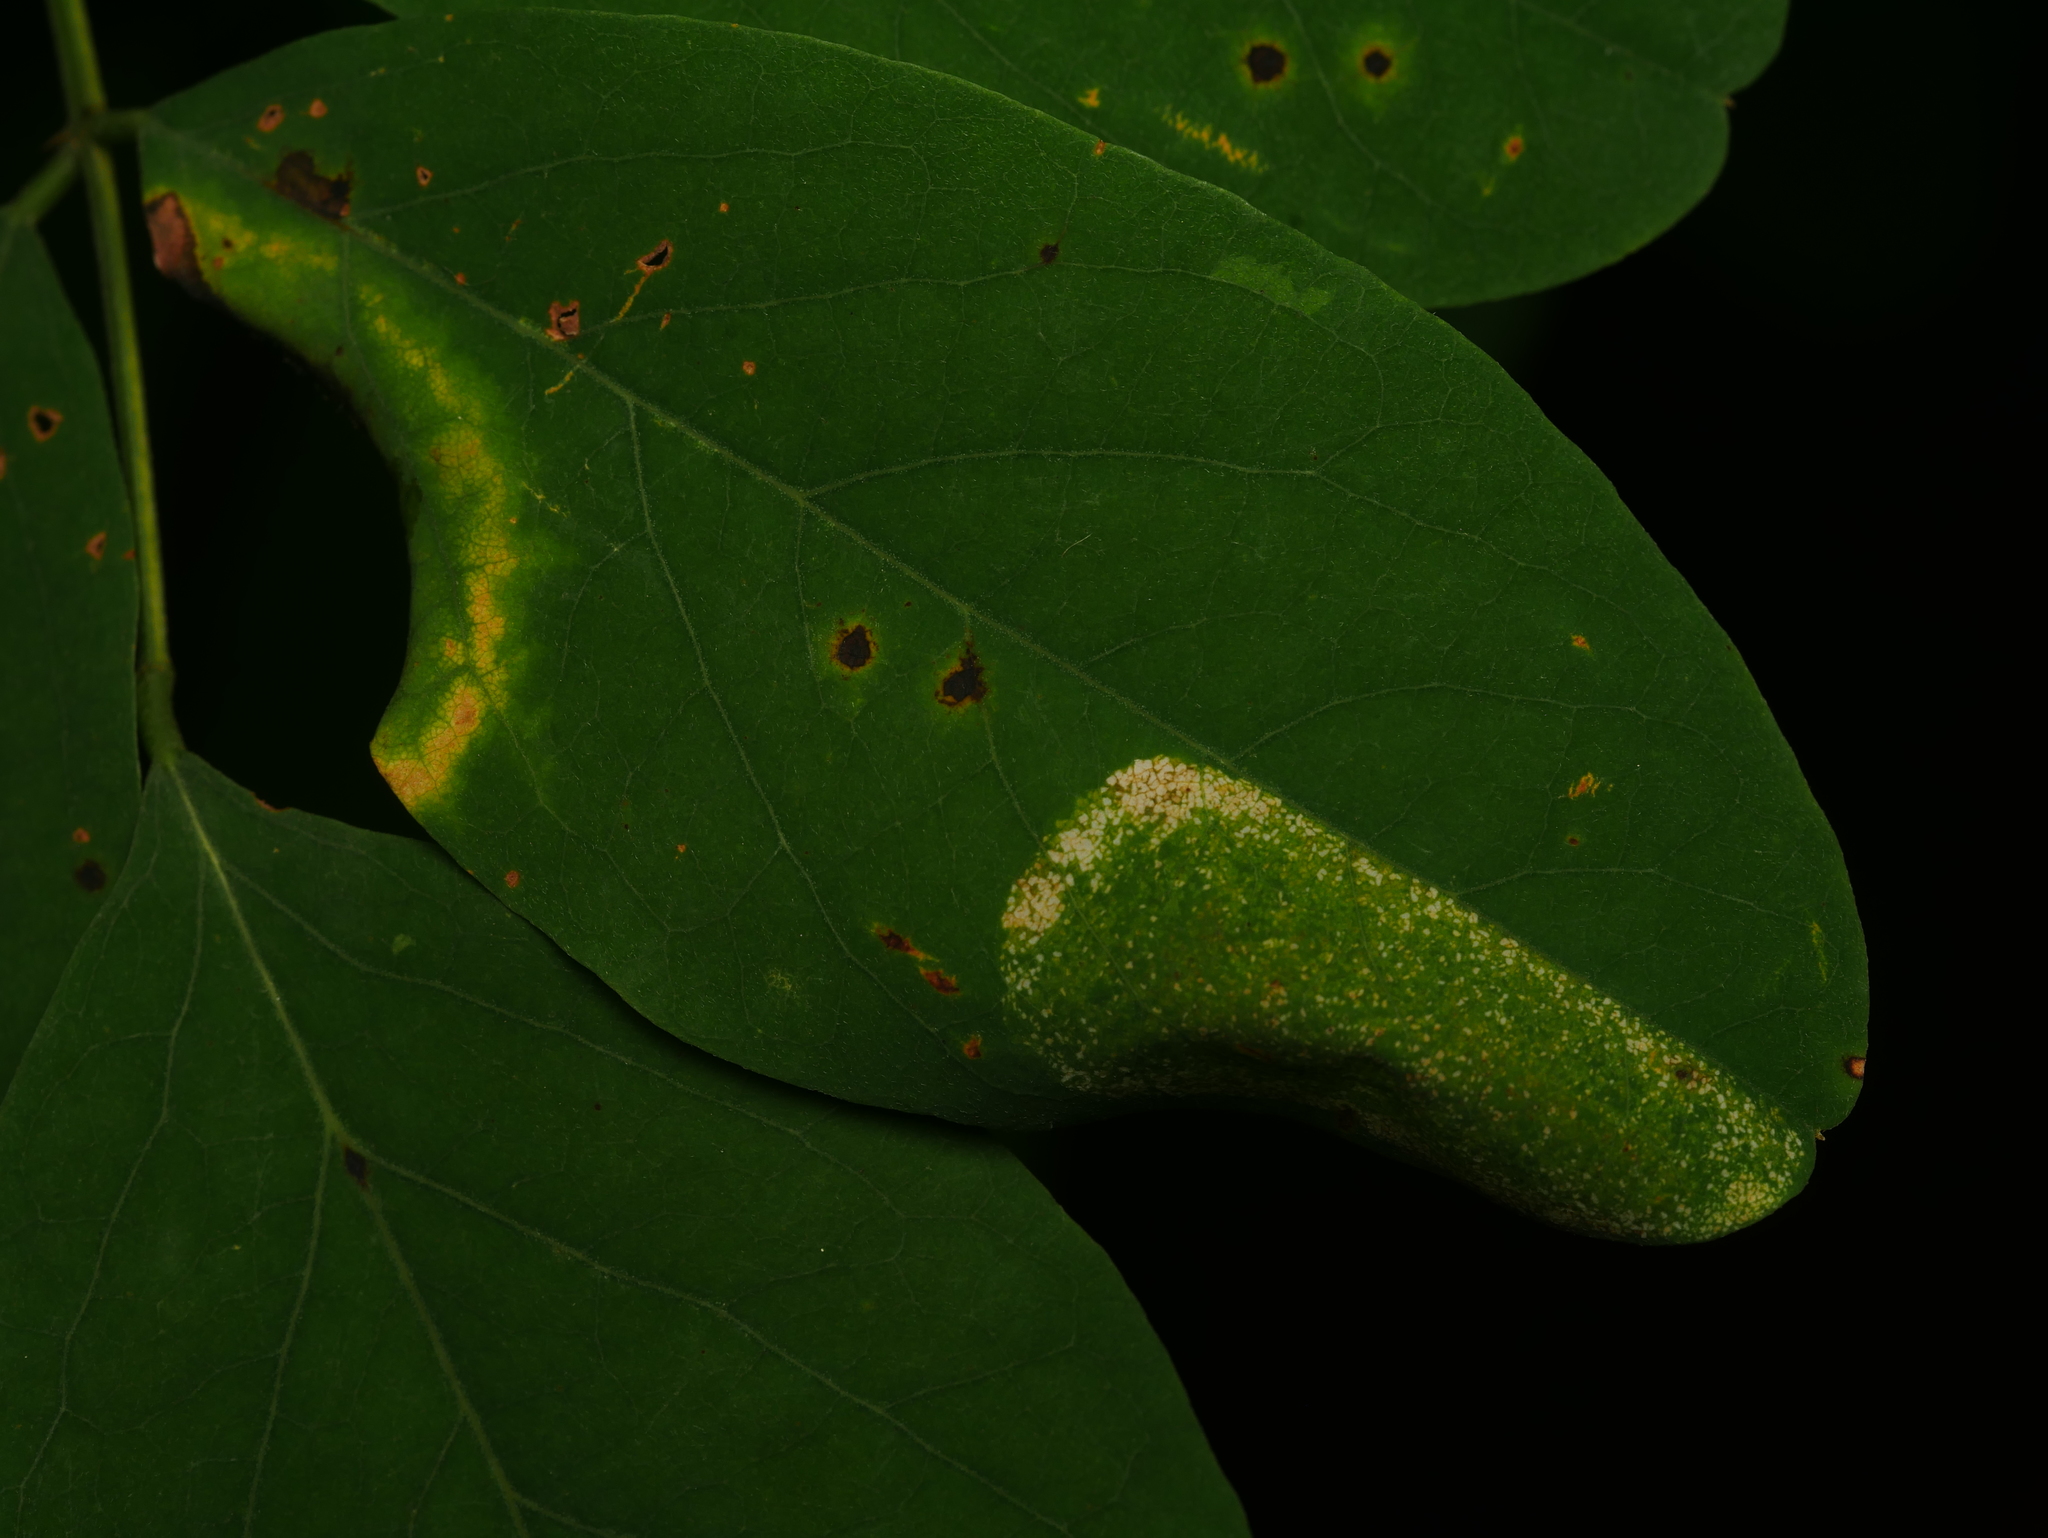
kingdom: Animalia
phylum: Arthropoda
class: Insecta
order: Lepidoptera
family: Gracillariidae
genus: Macrosaccus
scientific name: Macrosaccus robiniella
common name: Leaf blotch miner moth
